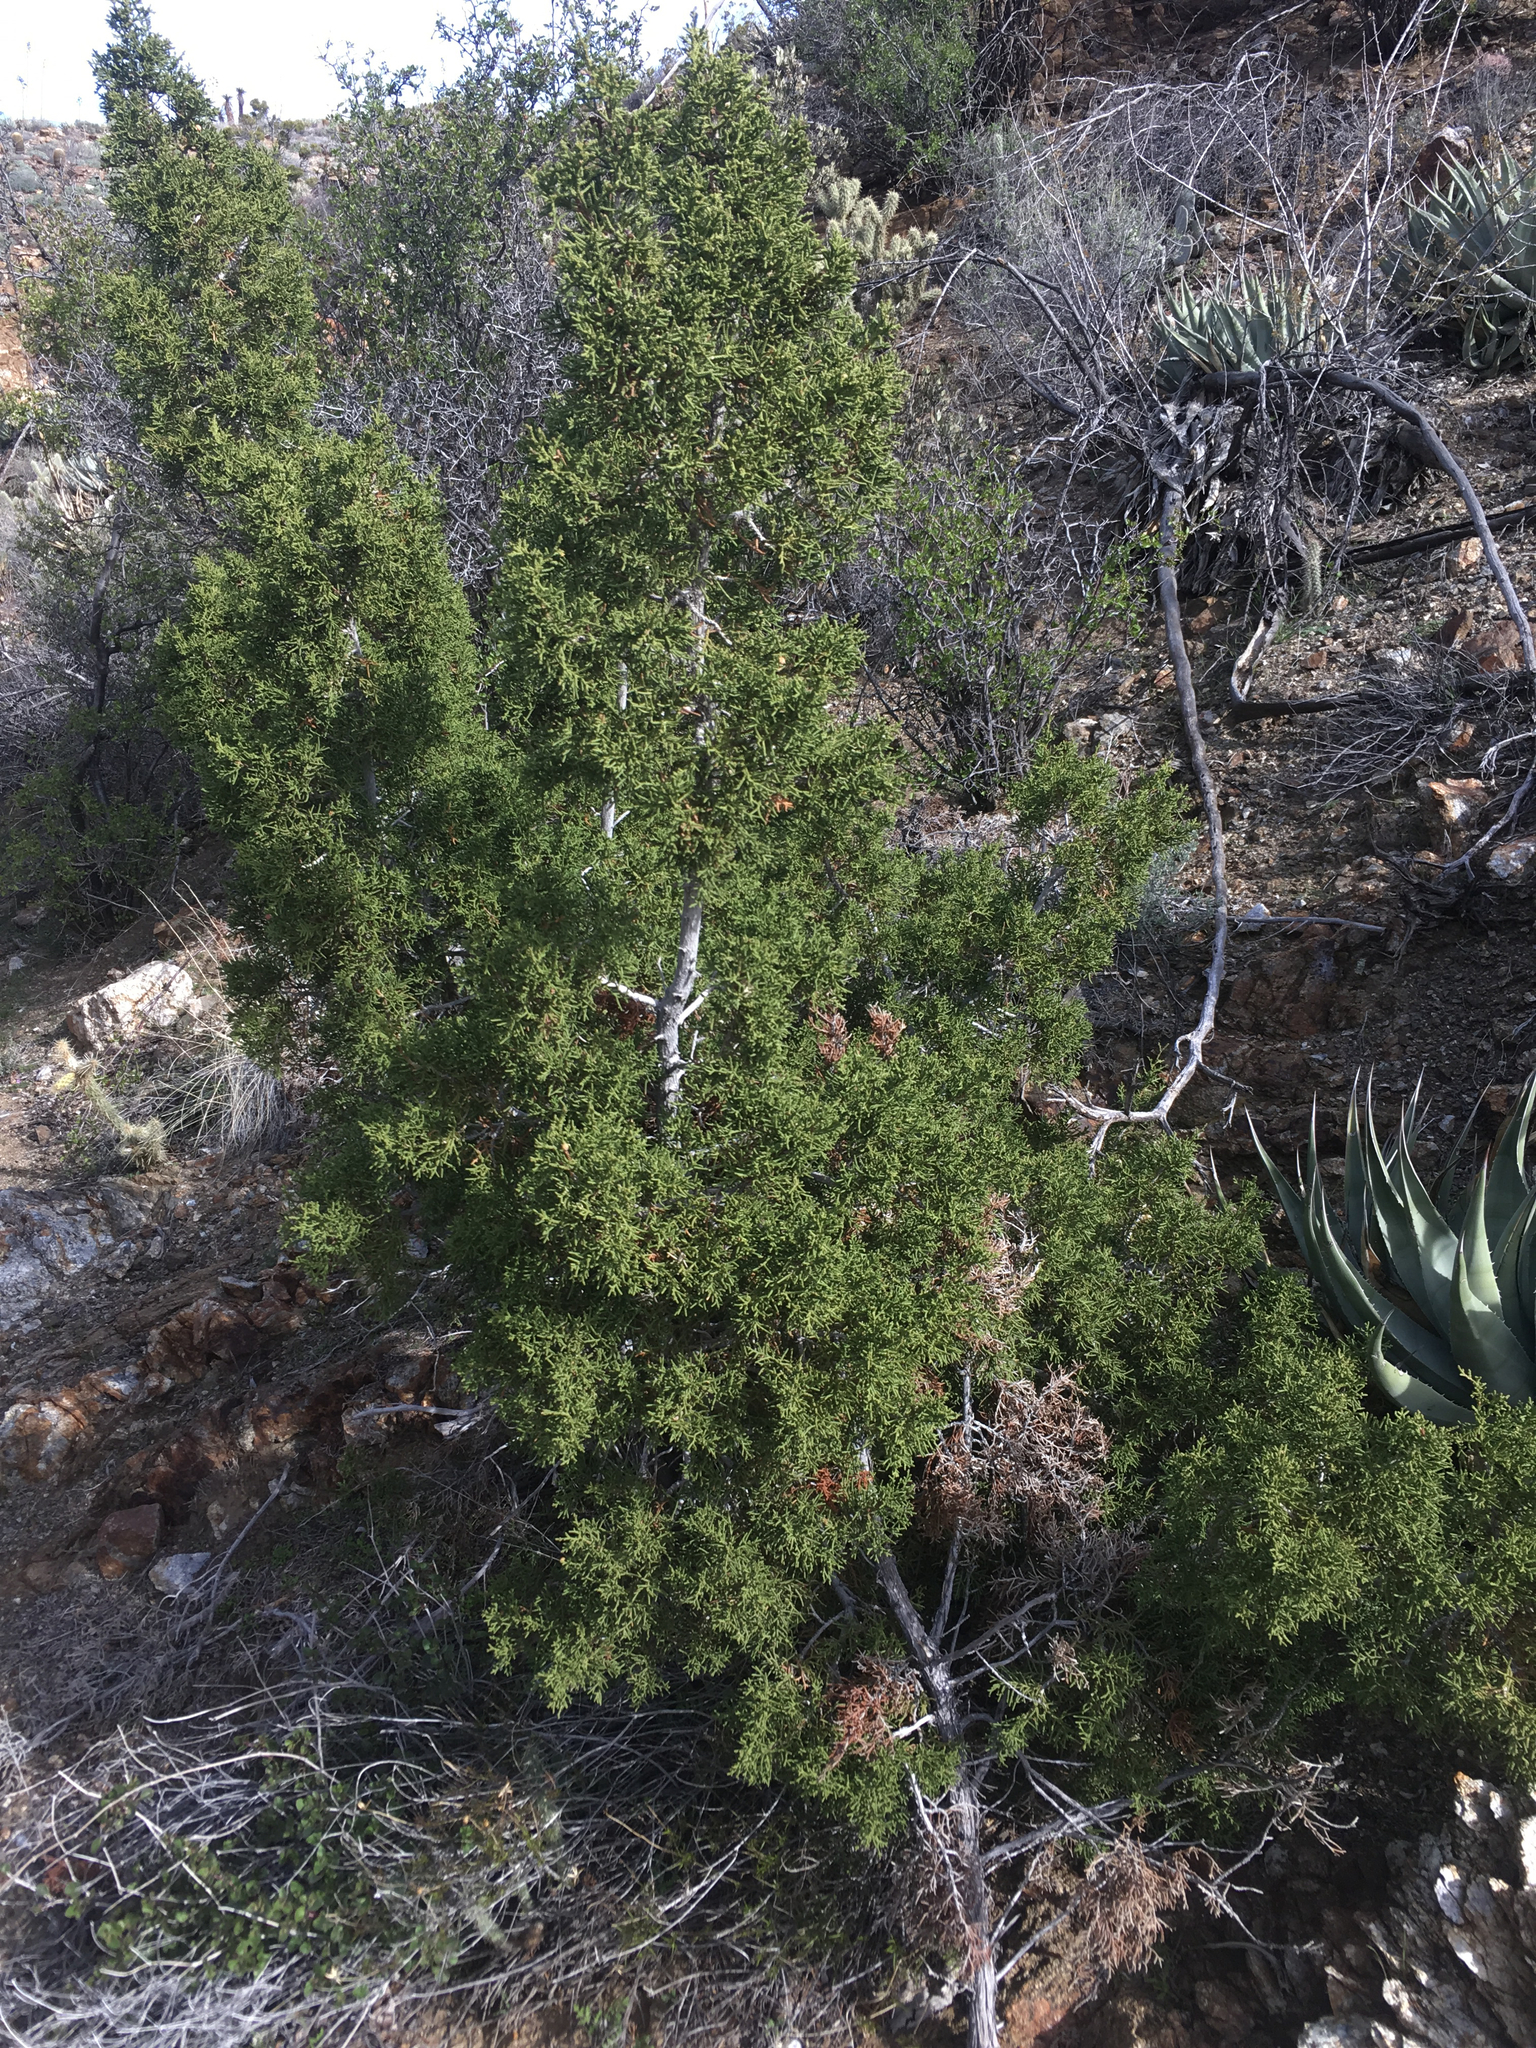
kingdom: Plantae
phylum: Tracheophyta
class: Pinopsida
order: Pinales
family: Cupressaceae
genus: Juniperus
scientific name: Juniperus californica
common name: California juniper
